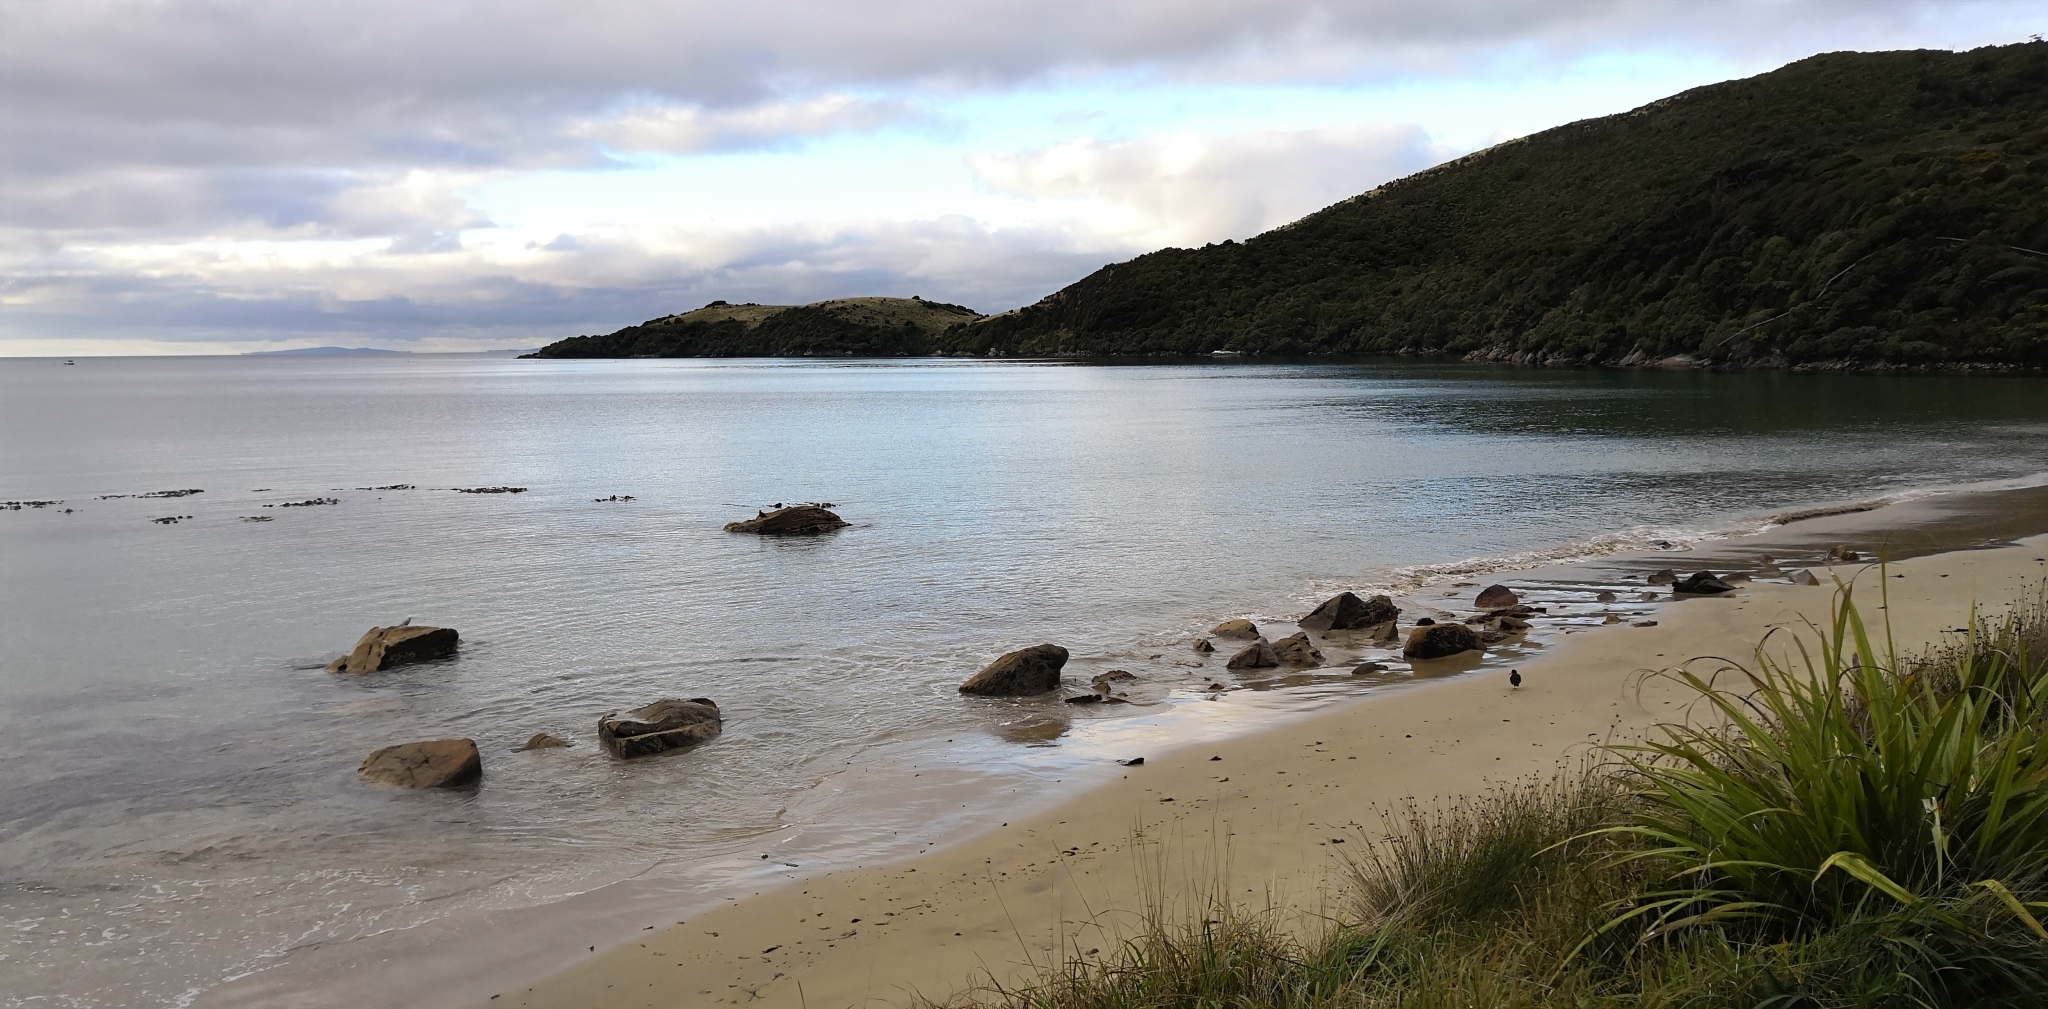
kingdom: Animalia
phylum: Chordata
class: Aves
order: Charadriiformes
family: Haematopodidae
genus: Haematopus
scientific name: Haematopus unicolor
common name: Variable oystercatcher
